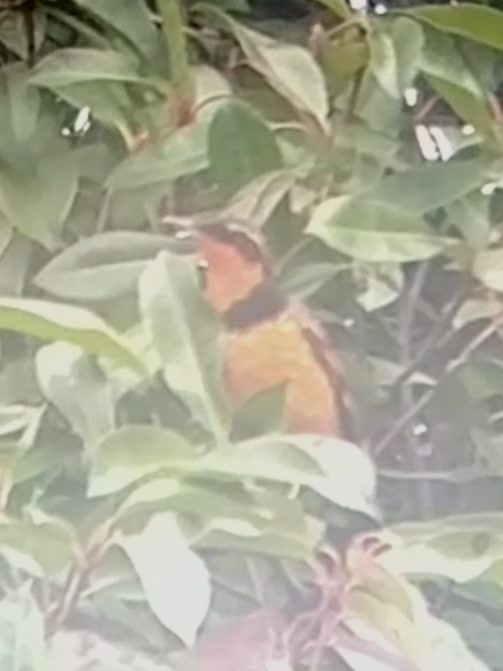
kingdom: Animalia
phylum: Chordata
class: Aves
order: Passeriformes
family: Turdidae
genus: Ixoreus
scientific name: Ixoreus naevius
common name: Varied thrush
